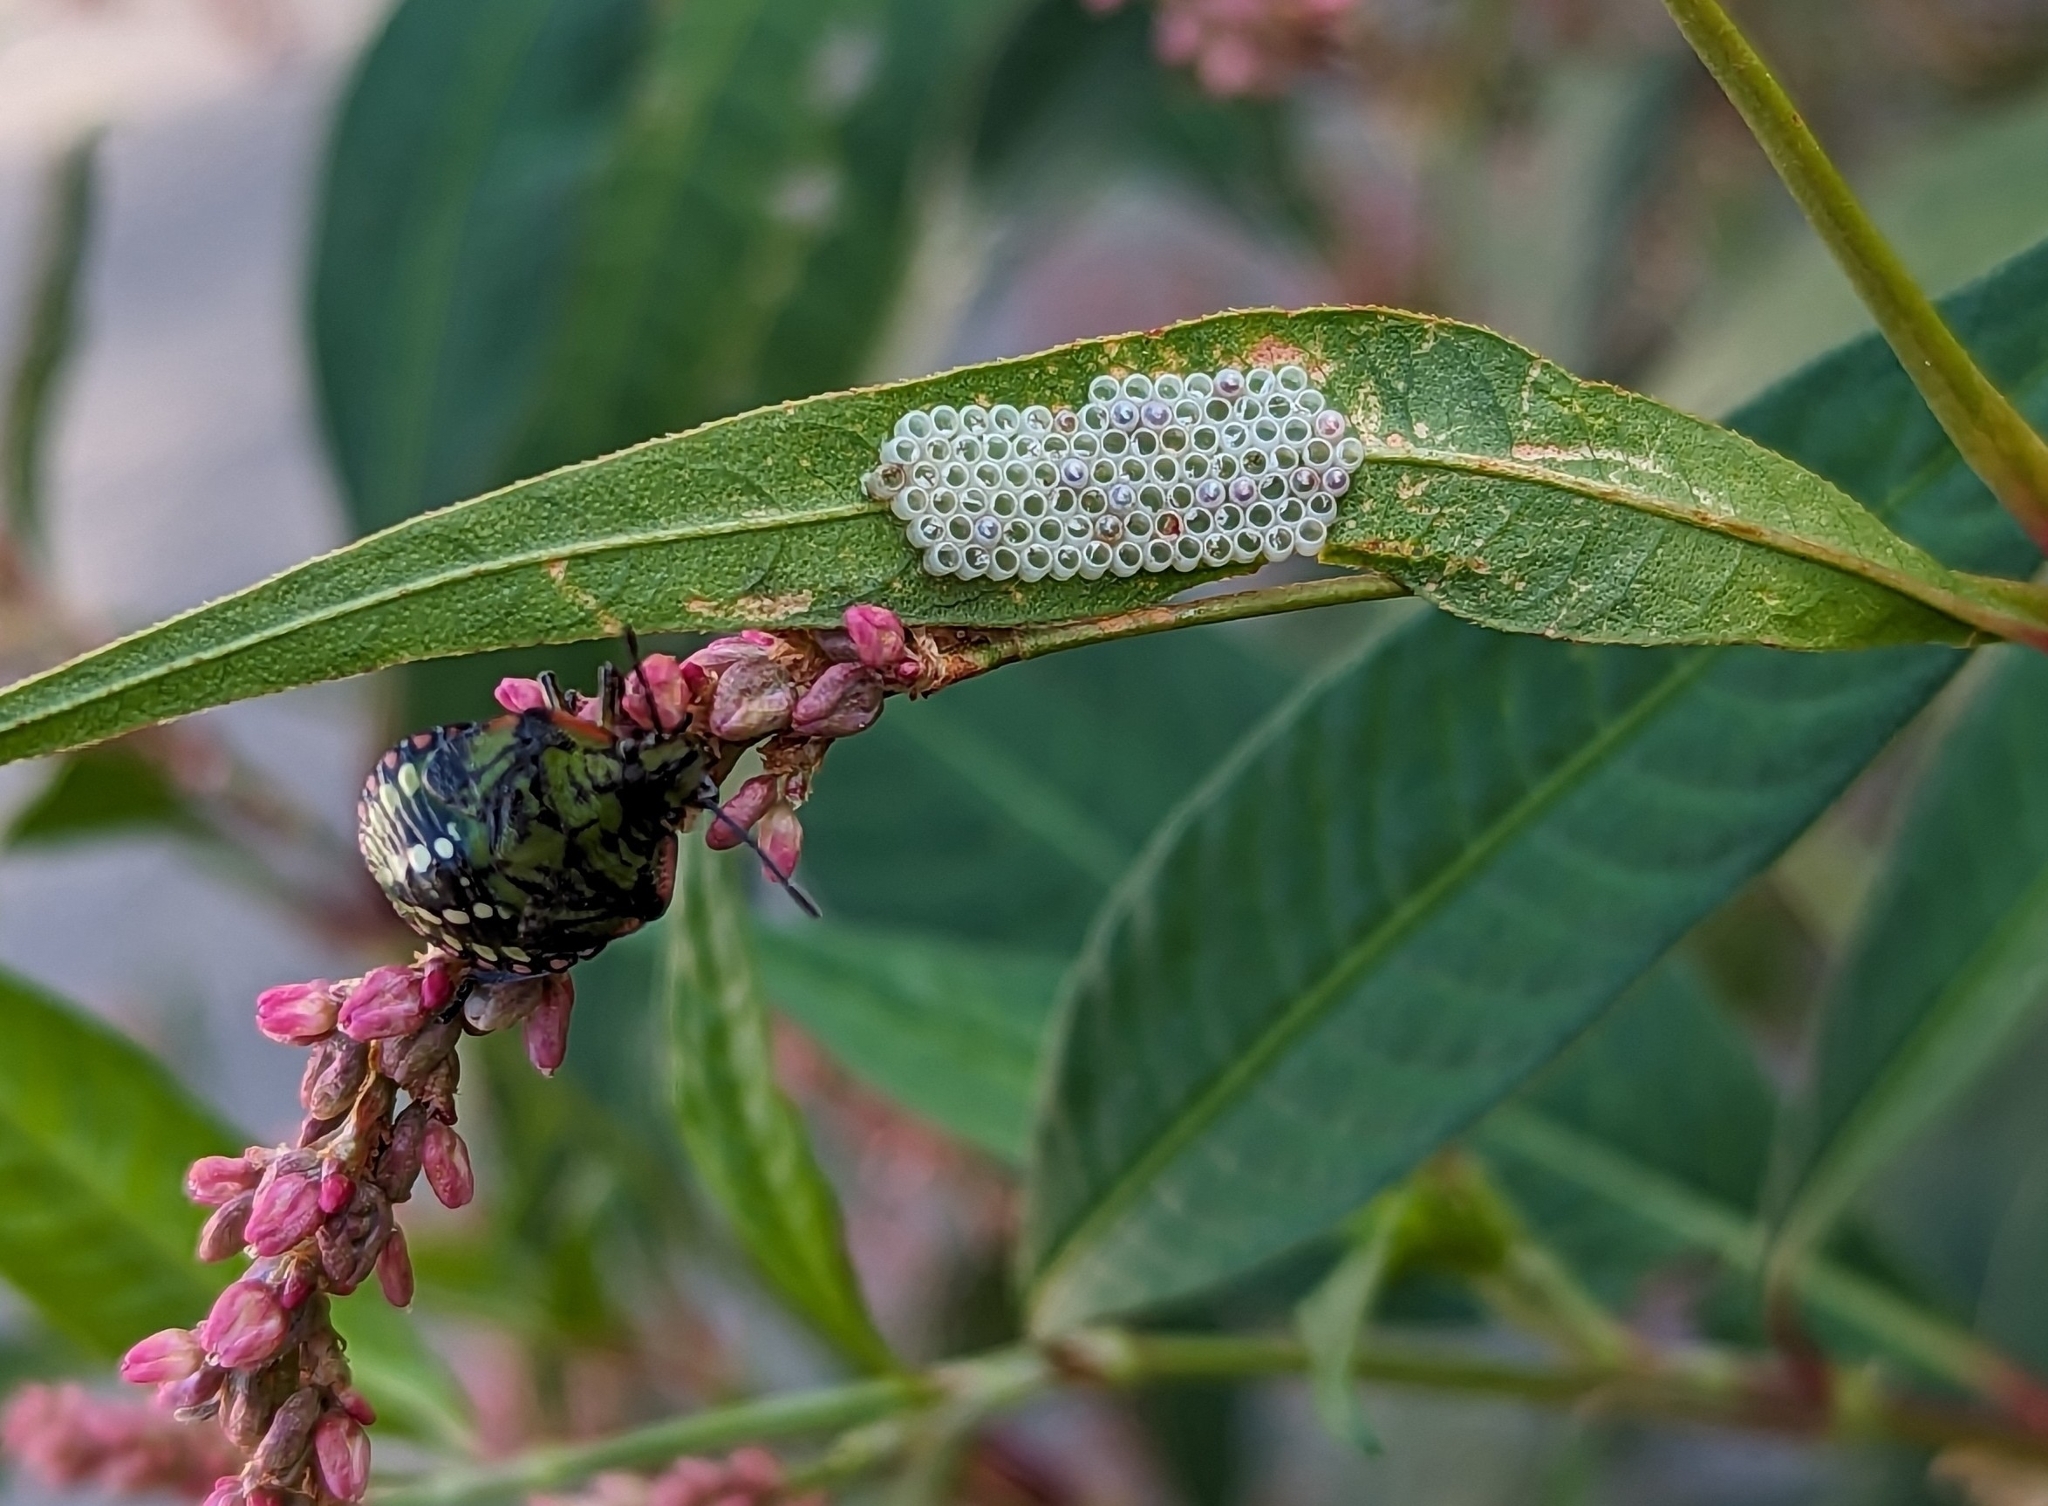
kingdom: Animalia
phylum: Arthropoda
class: Insecta
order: Hemiptera
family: Pentatomidae
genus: Nezara
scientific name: Nezara viridula
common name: Southern green stink bug
